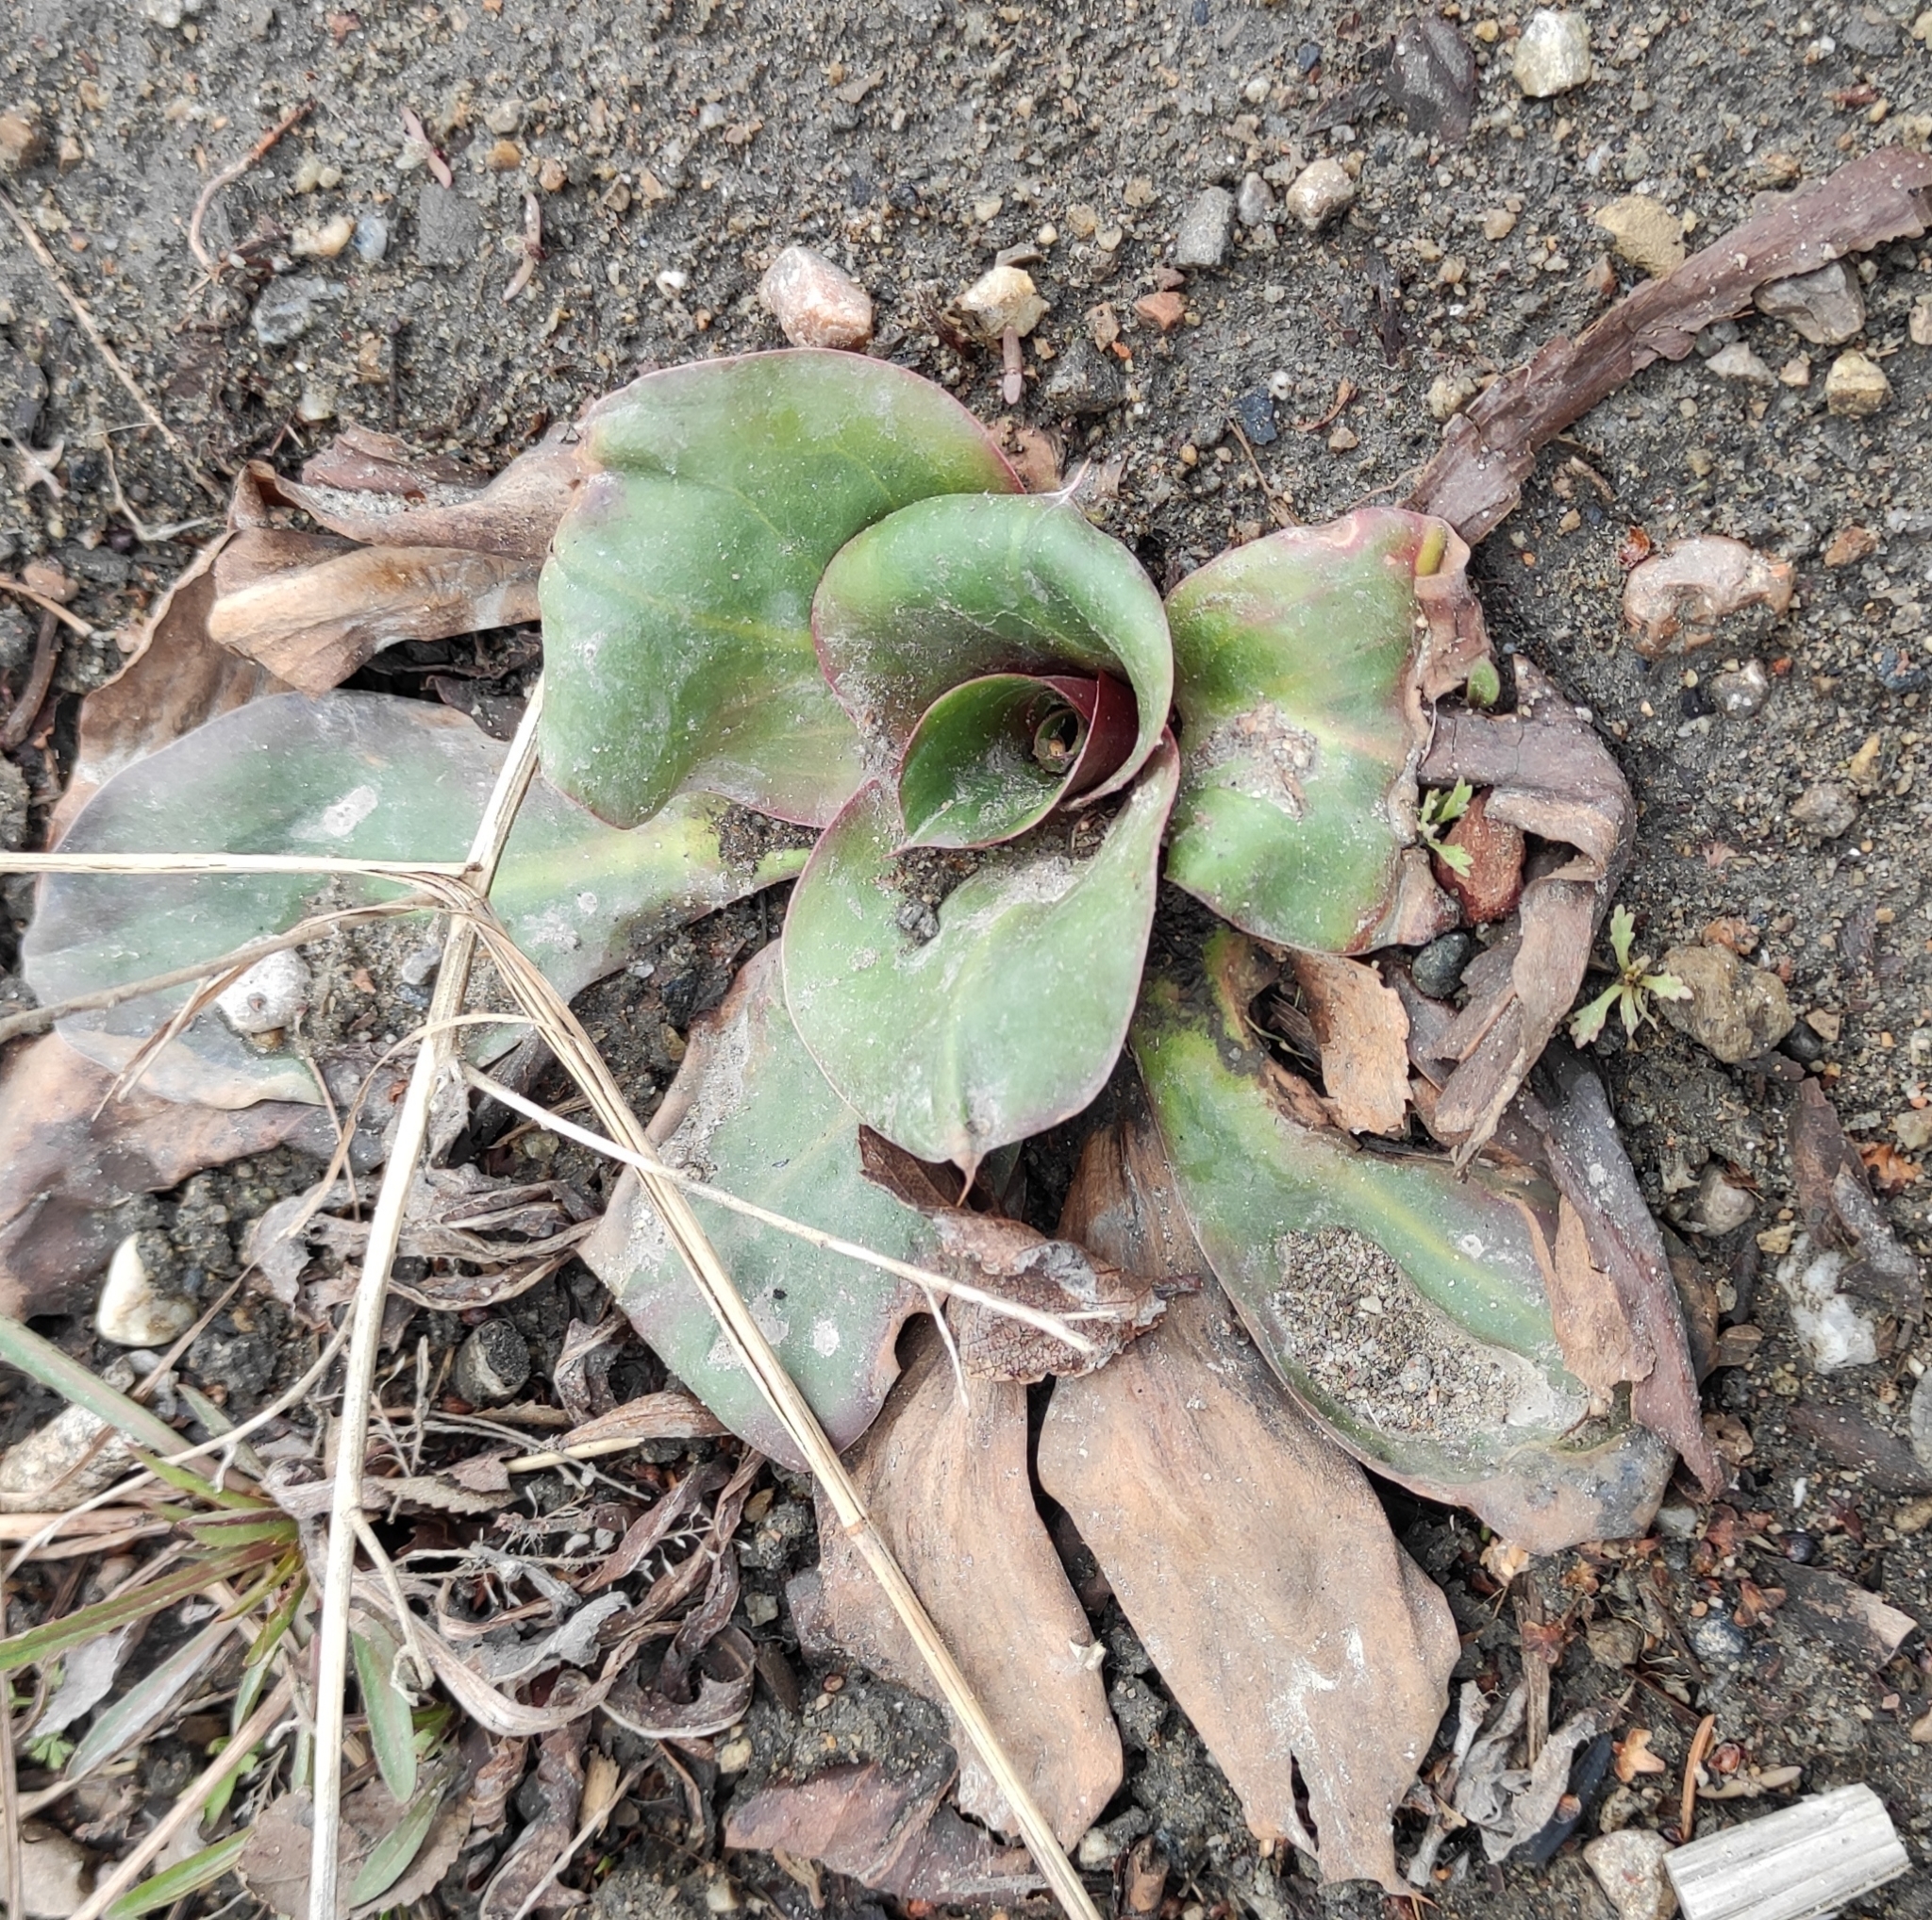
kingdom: Plantae
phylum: Tracheophyta
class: Magnoliopsida
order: Caryophyllales
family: Plumbaginaceae
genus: Goniolimon
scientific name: Goniolimon speciosum
